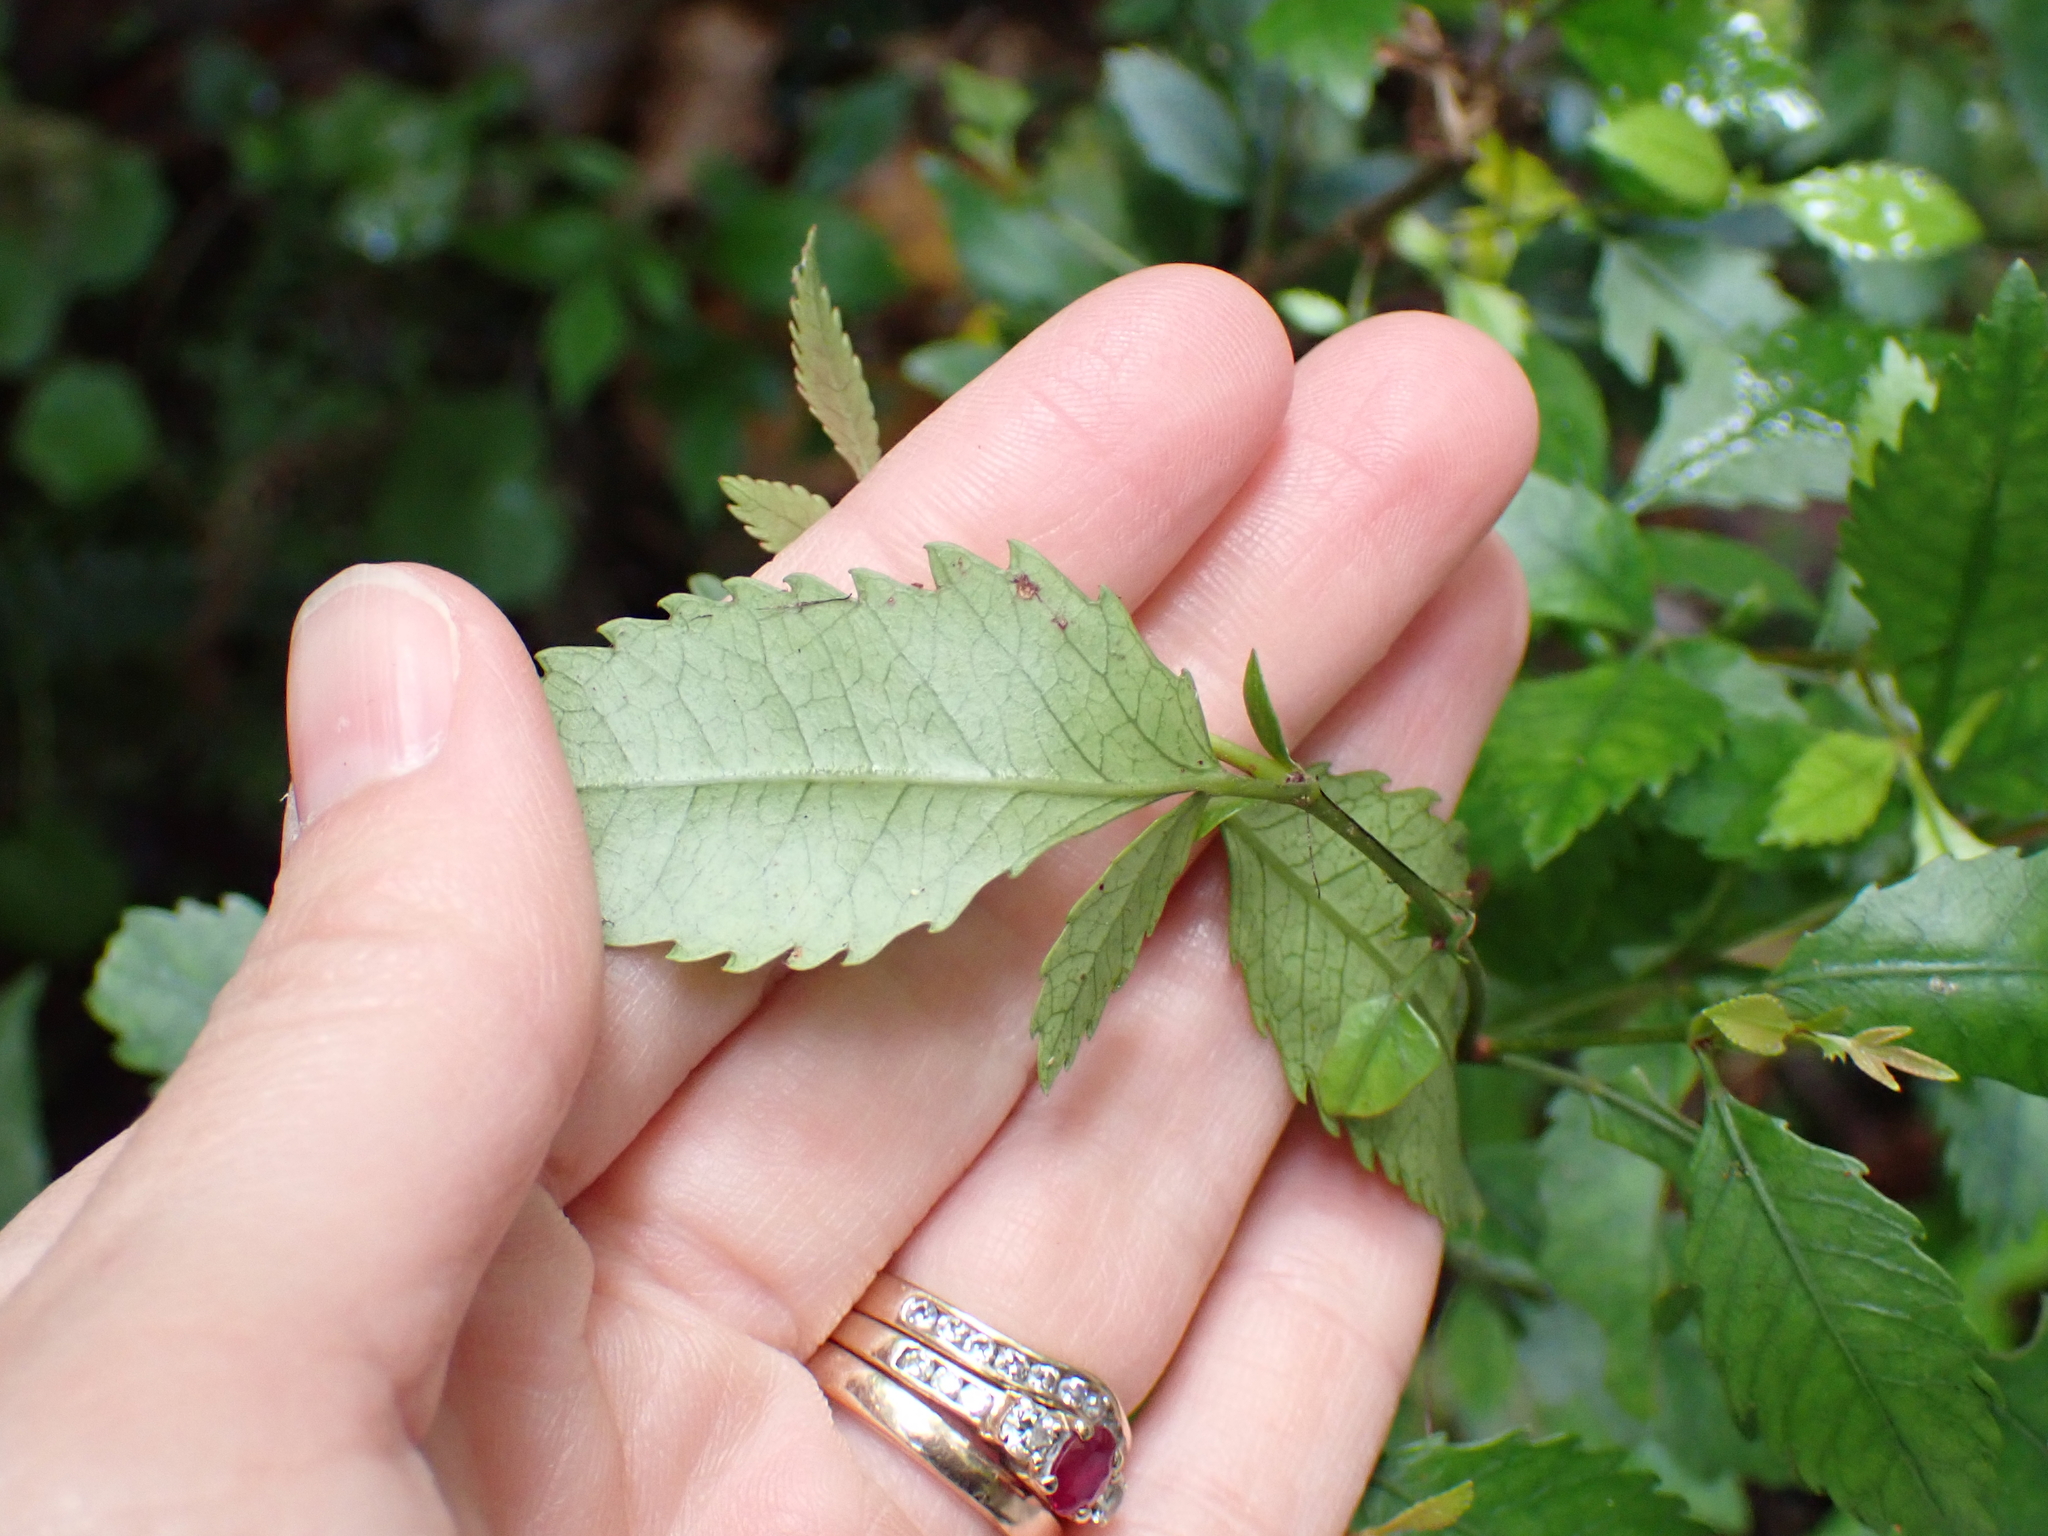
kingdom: Plantae
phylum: Tracheophyta
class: Magnoliopsida
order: Oxalidales
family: Cunoniaceae
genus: Pterophylla
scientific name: Pterophylla racemosa
